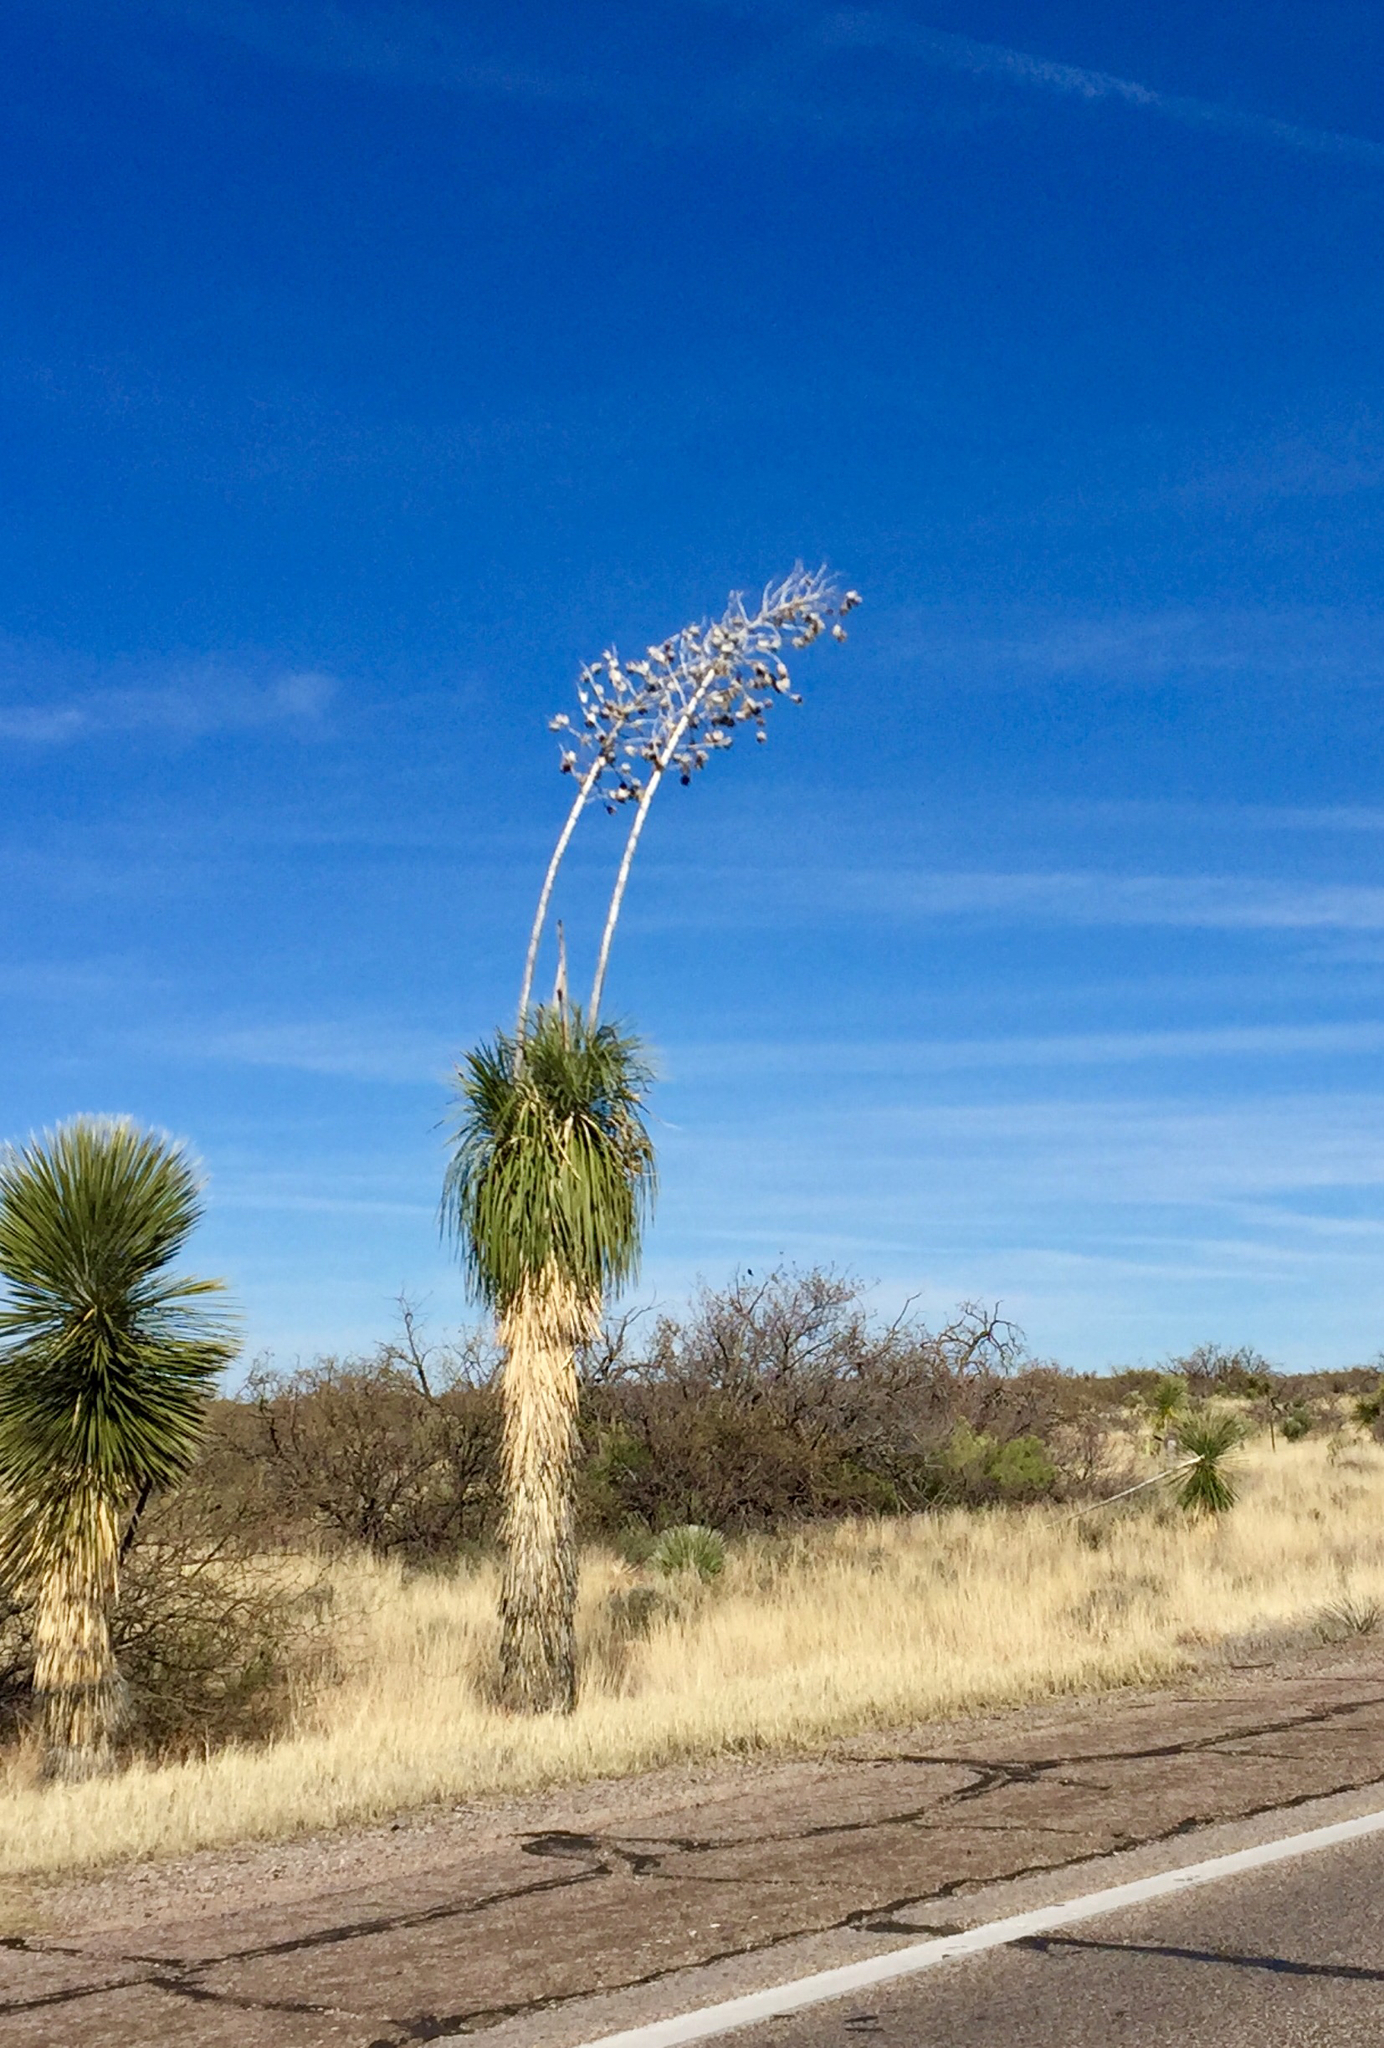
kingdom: Plantae
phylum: Tracheophyta
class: Liliopsida
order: Asparagales
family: Asparagaceae
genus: Yucca
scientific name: Yucca elata
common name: Palmella
